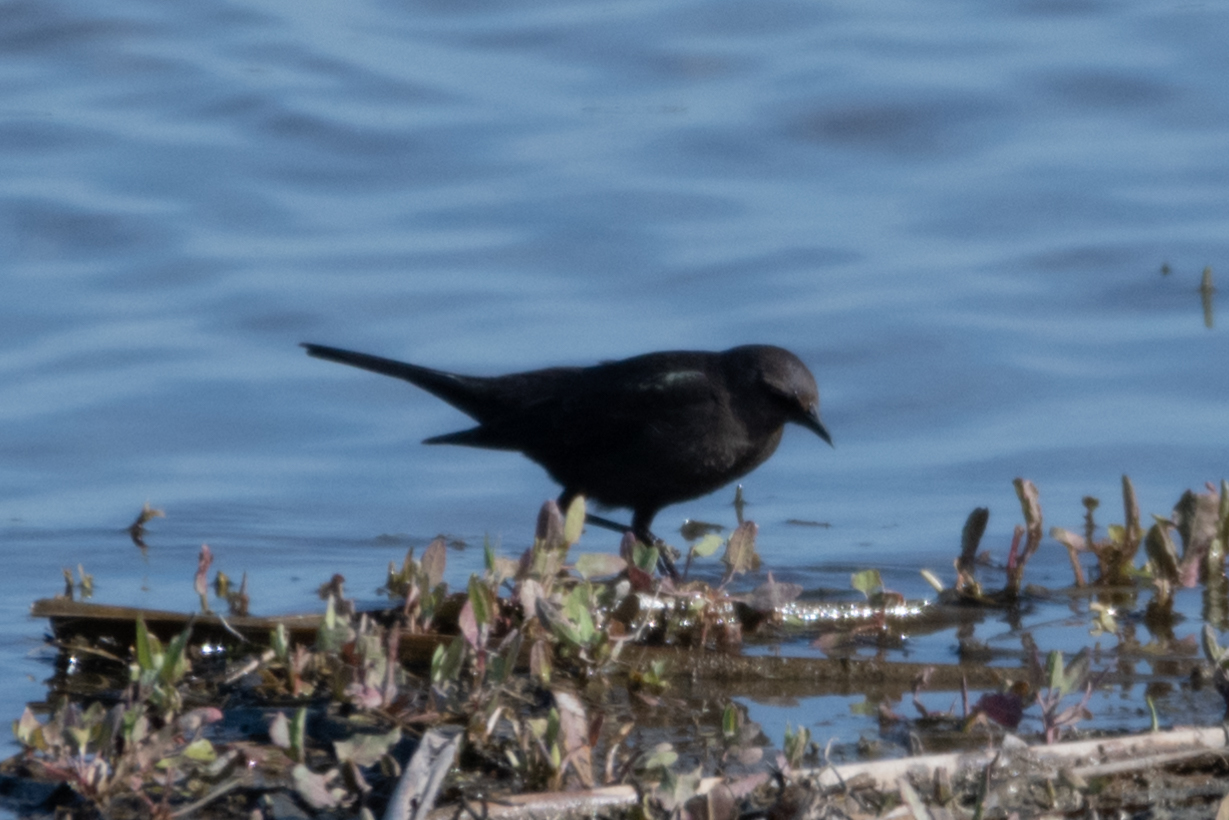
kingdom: Animalia
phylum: Chordata
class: Aves
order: Passeriformes
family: Icteridae
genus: Euphagus
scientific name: Euphagus cyanocephalus
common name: Brewer's blackbird
